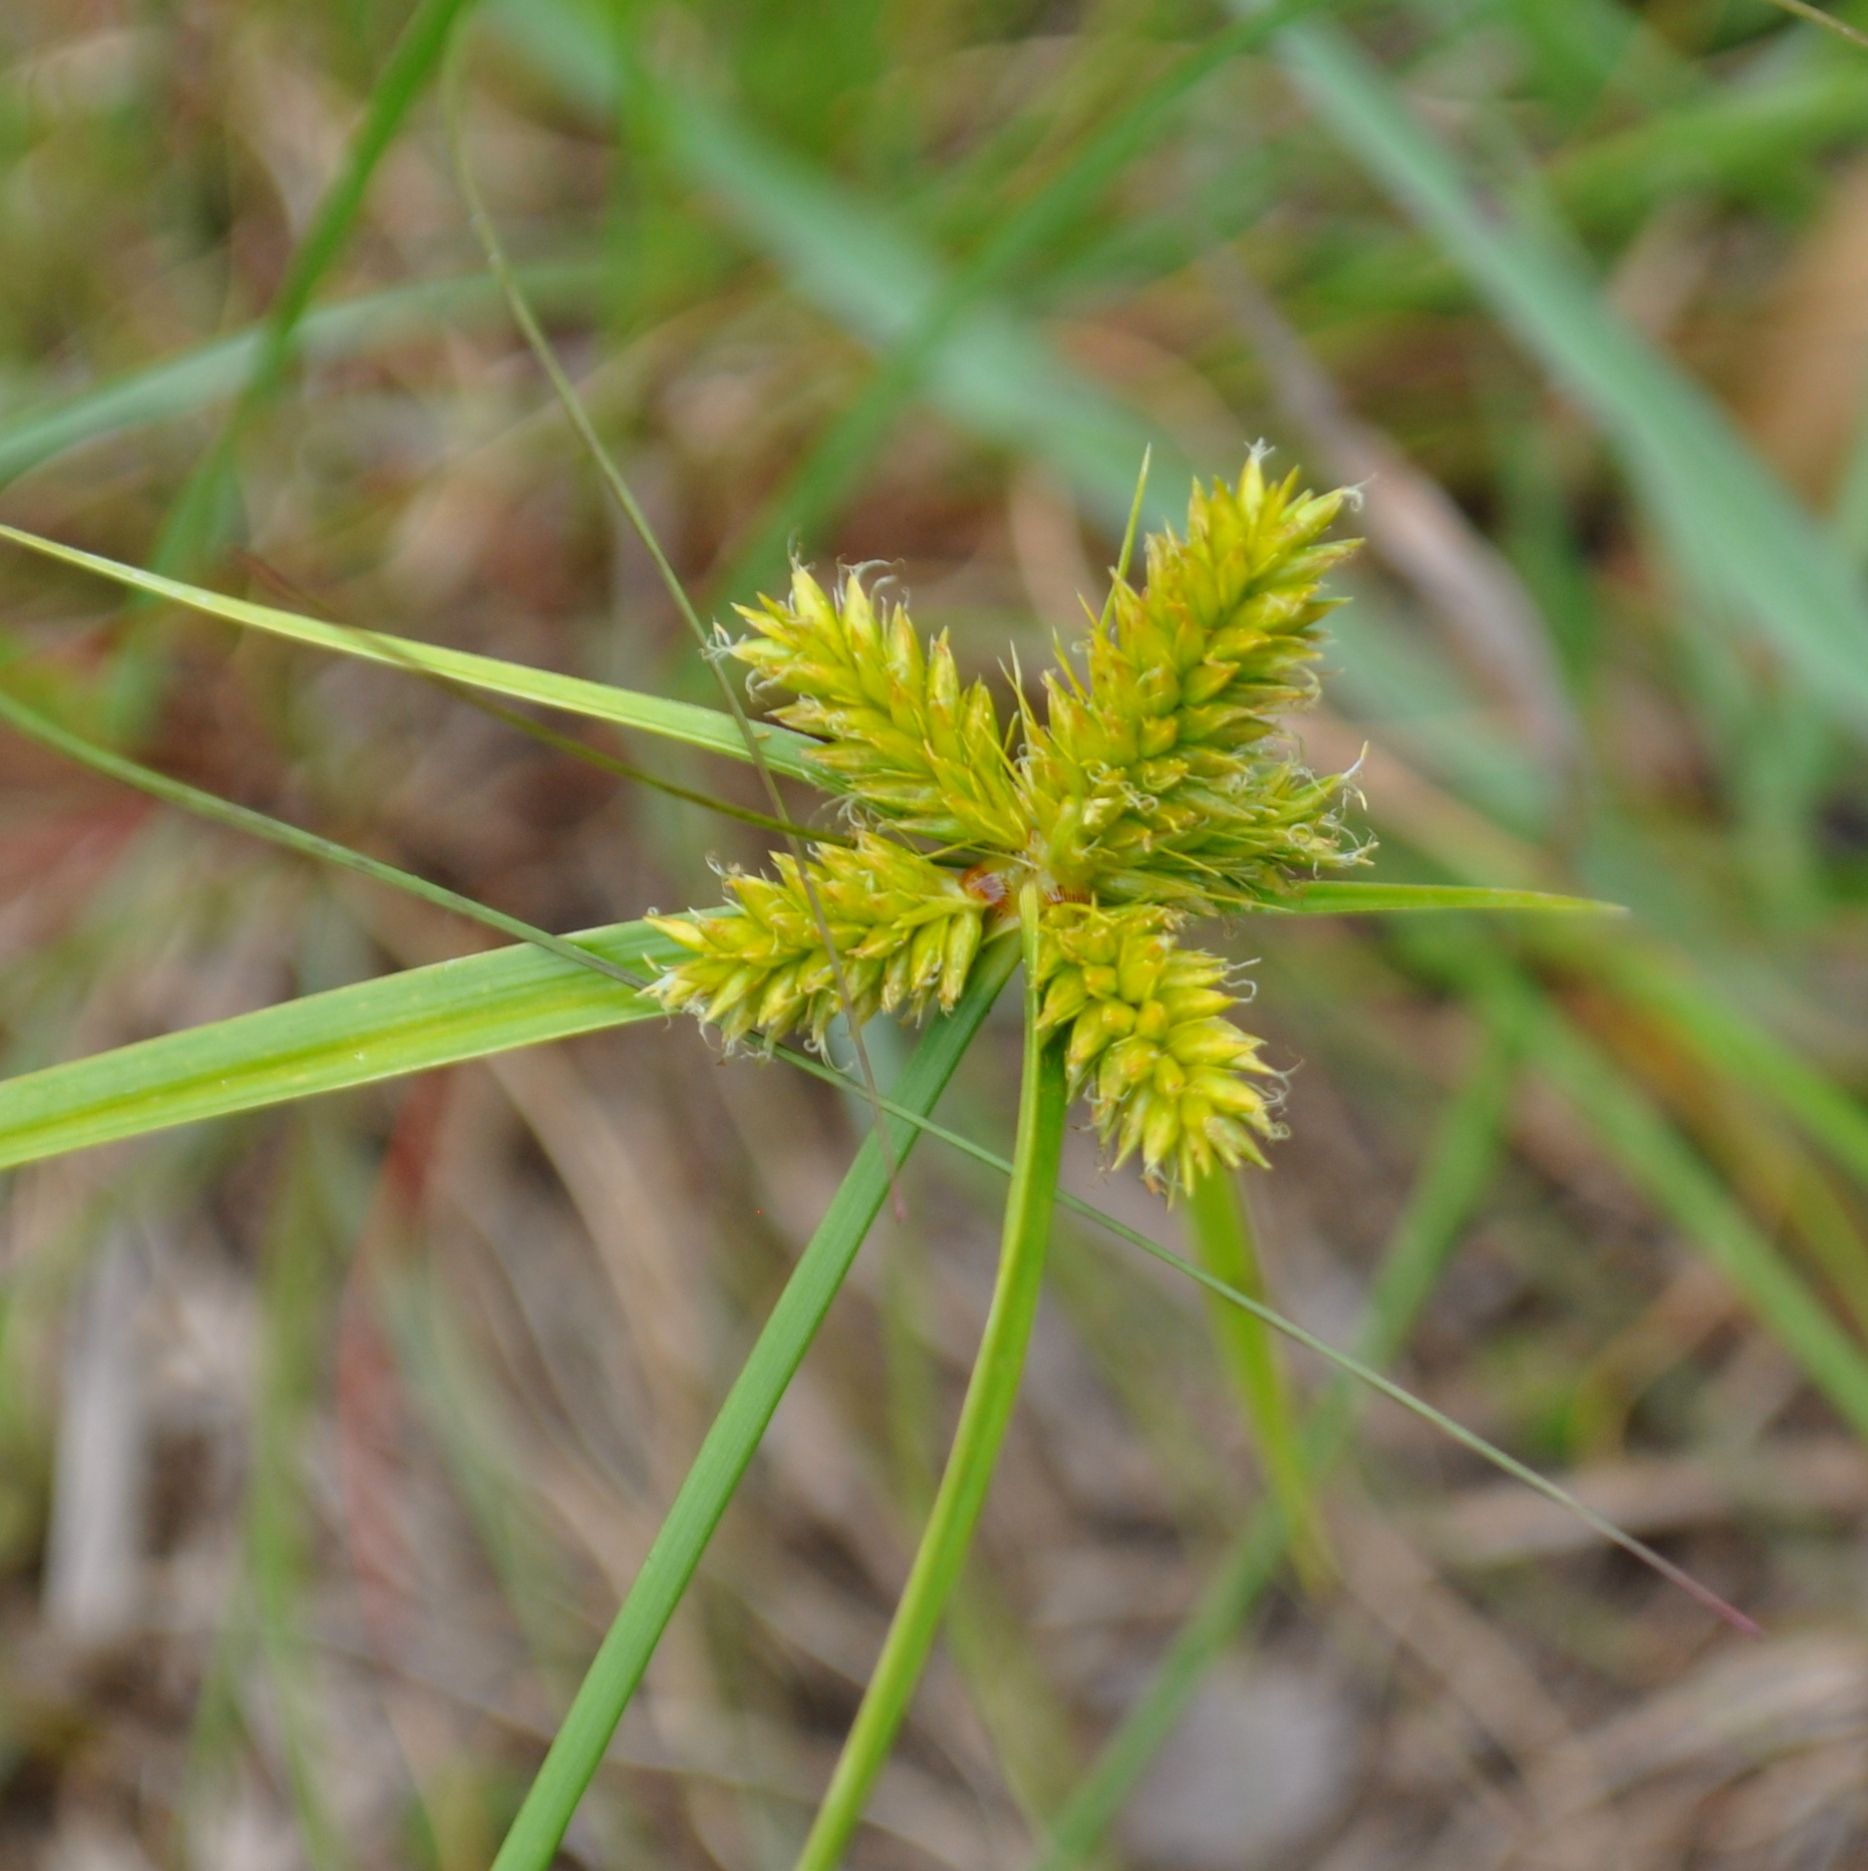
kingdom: Plantae
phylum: Tracheophyta
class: Liliopsida
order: Poales
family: Cyperaceae
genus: Cyperus
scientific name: Cyperus aggregatus
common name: Inflatedscale flatsedge
